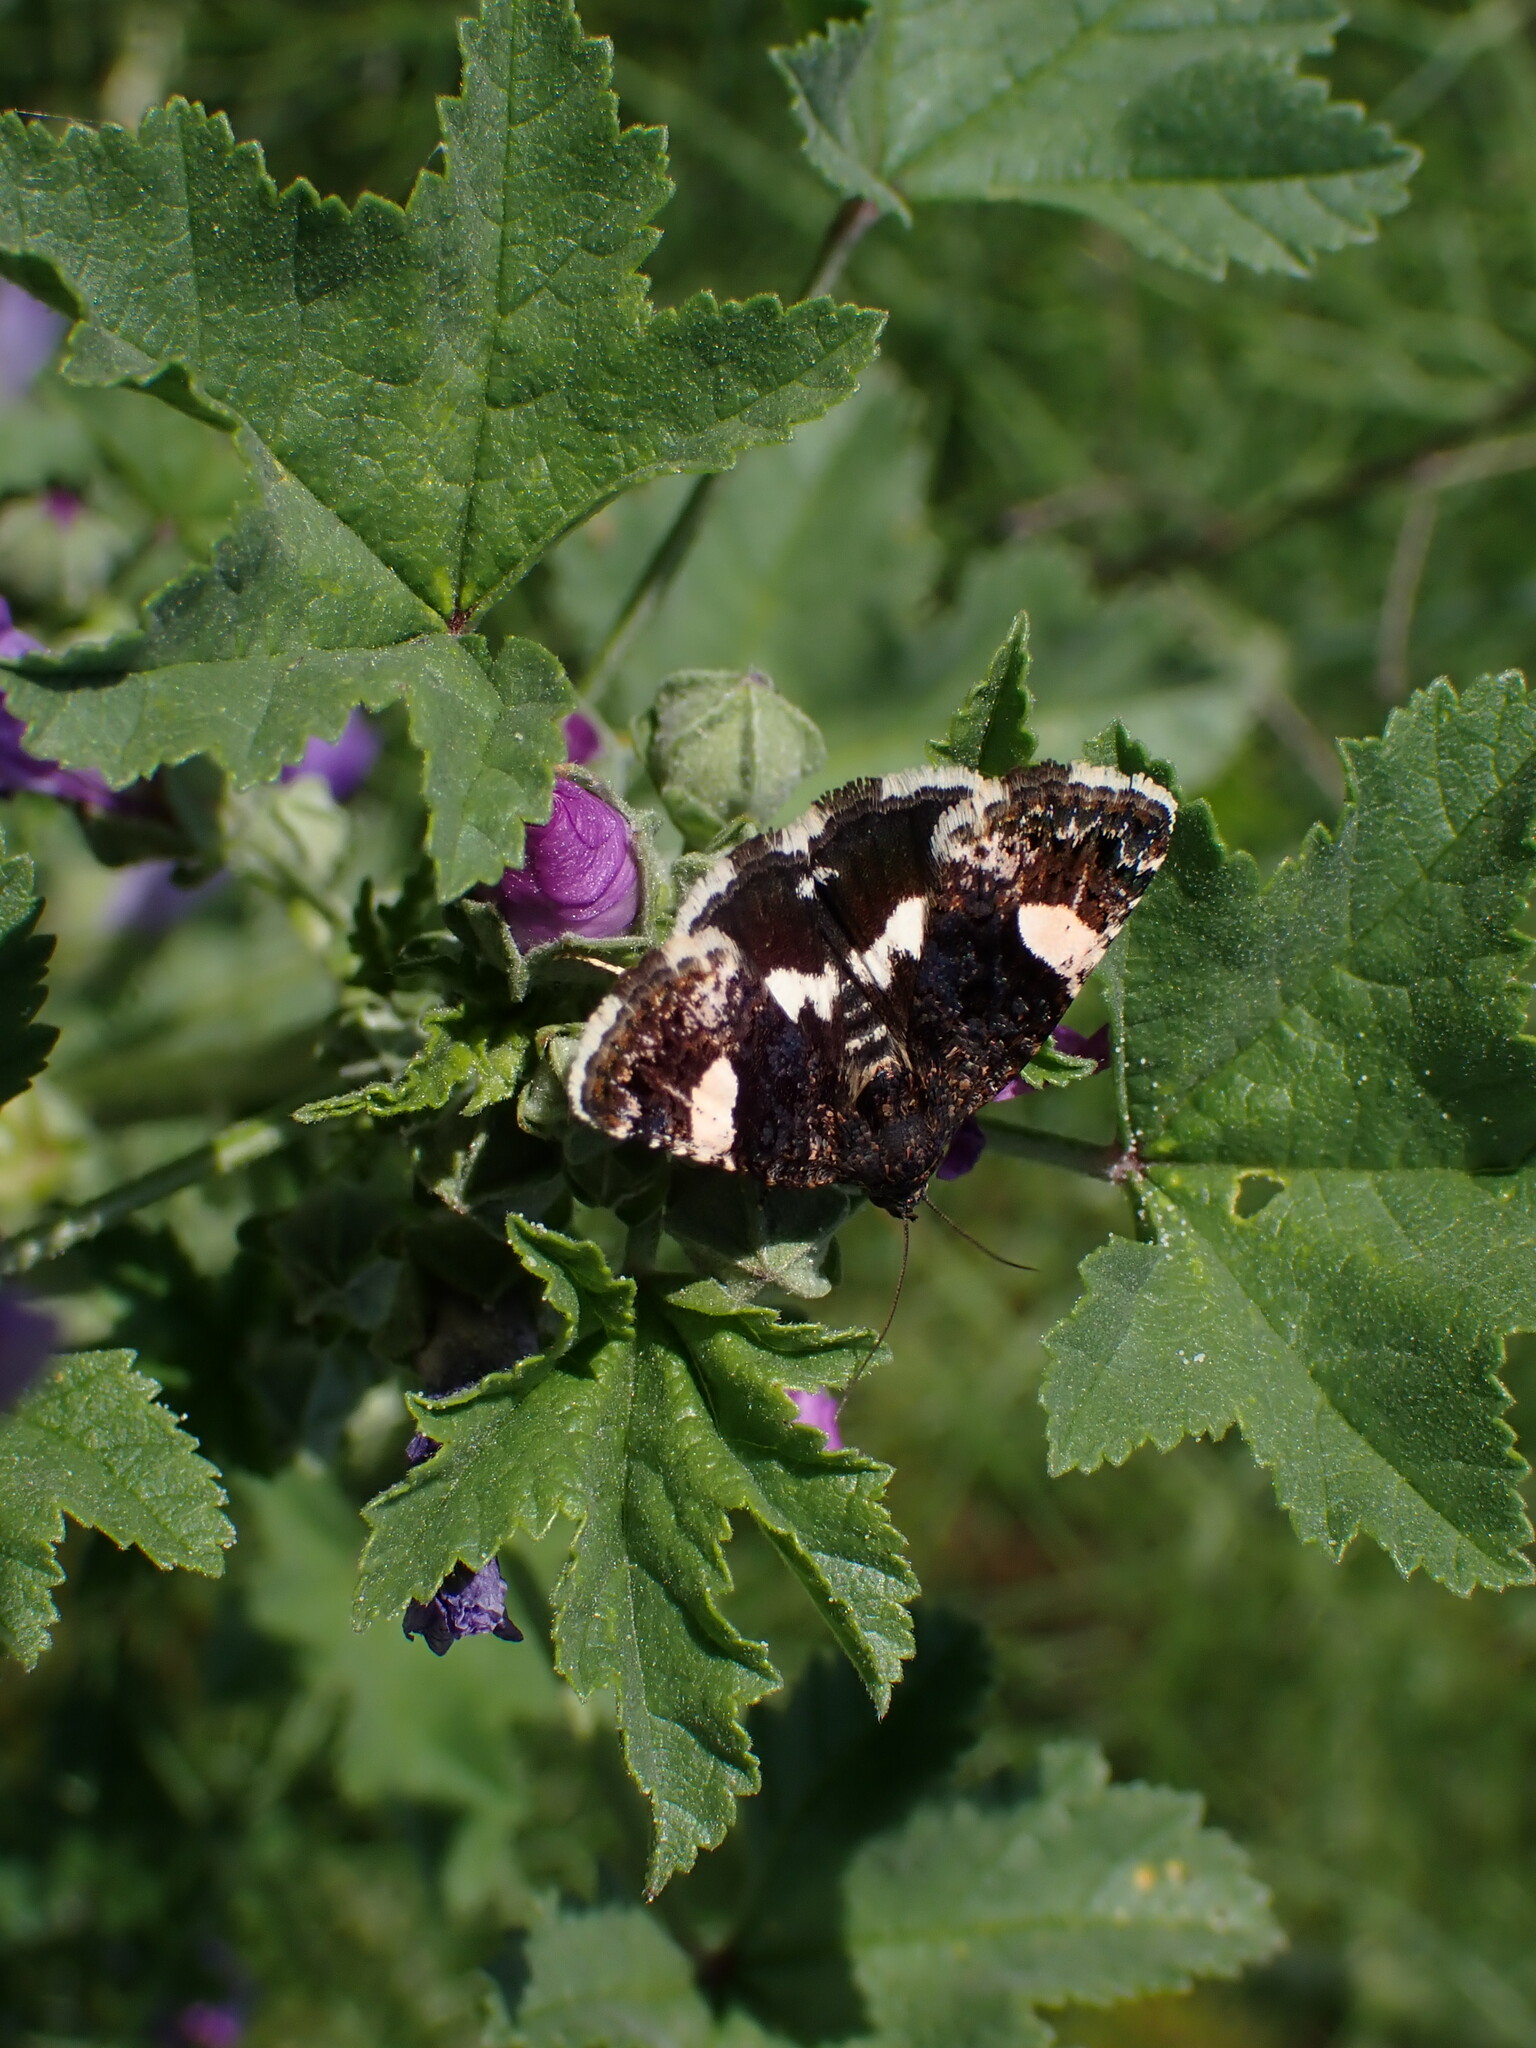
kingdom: Animalia
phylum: Arthropoda
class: Insecta
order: Lepidoptera
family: Erebidae
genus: Tyta
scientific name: Tyta luctuosa
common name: Four-spotted
